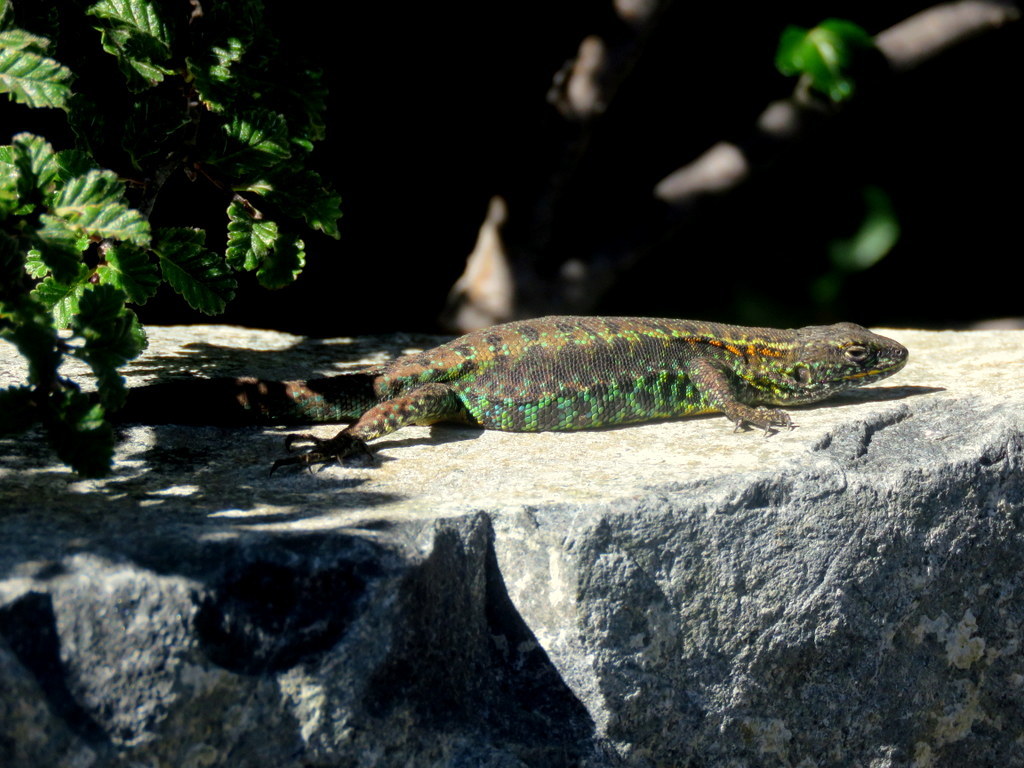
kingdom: Animalia
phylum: Chordata
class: Squamata
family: Liolaemidae
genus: Liolaemus
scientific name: Liolaemus pictus
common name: Painted tree iguana
